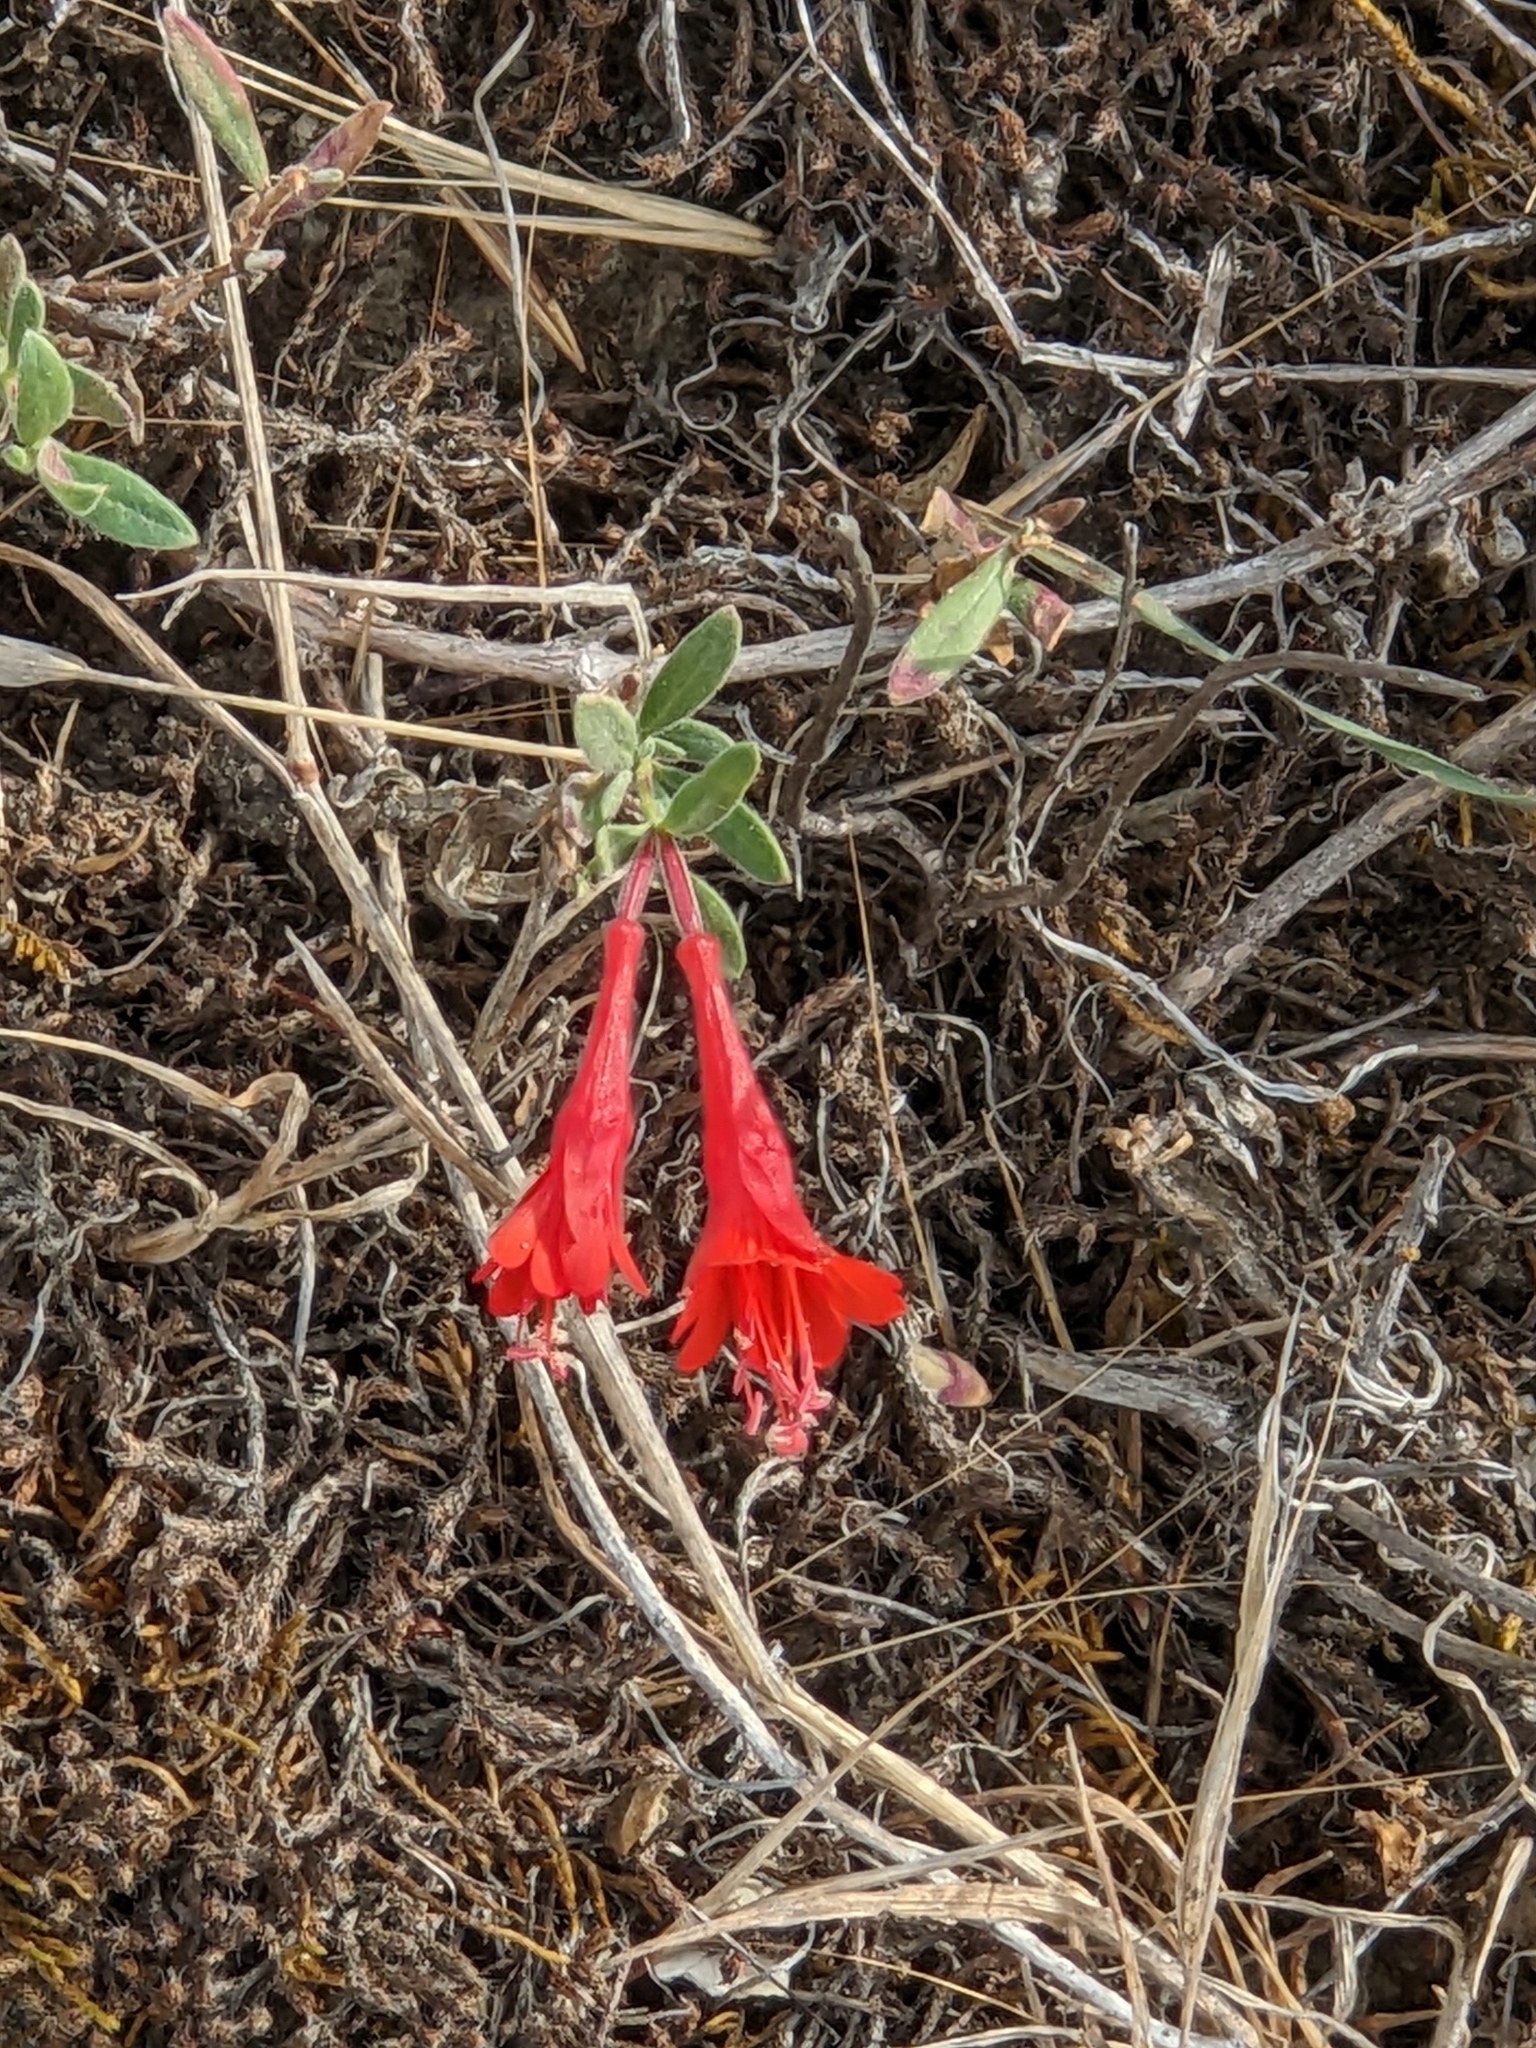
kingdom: Plantae
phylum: Tracheophyta
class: Magnoliopsida
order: Myrtales
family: Onagraceae
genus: Epilobium
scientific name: Epilobium canum
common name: California-fuchsia
